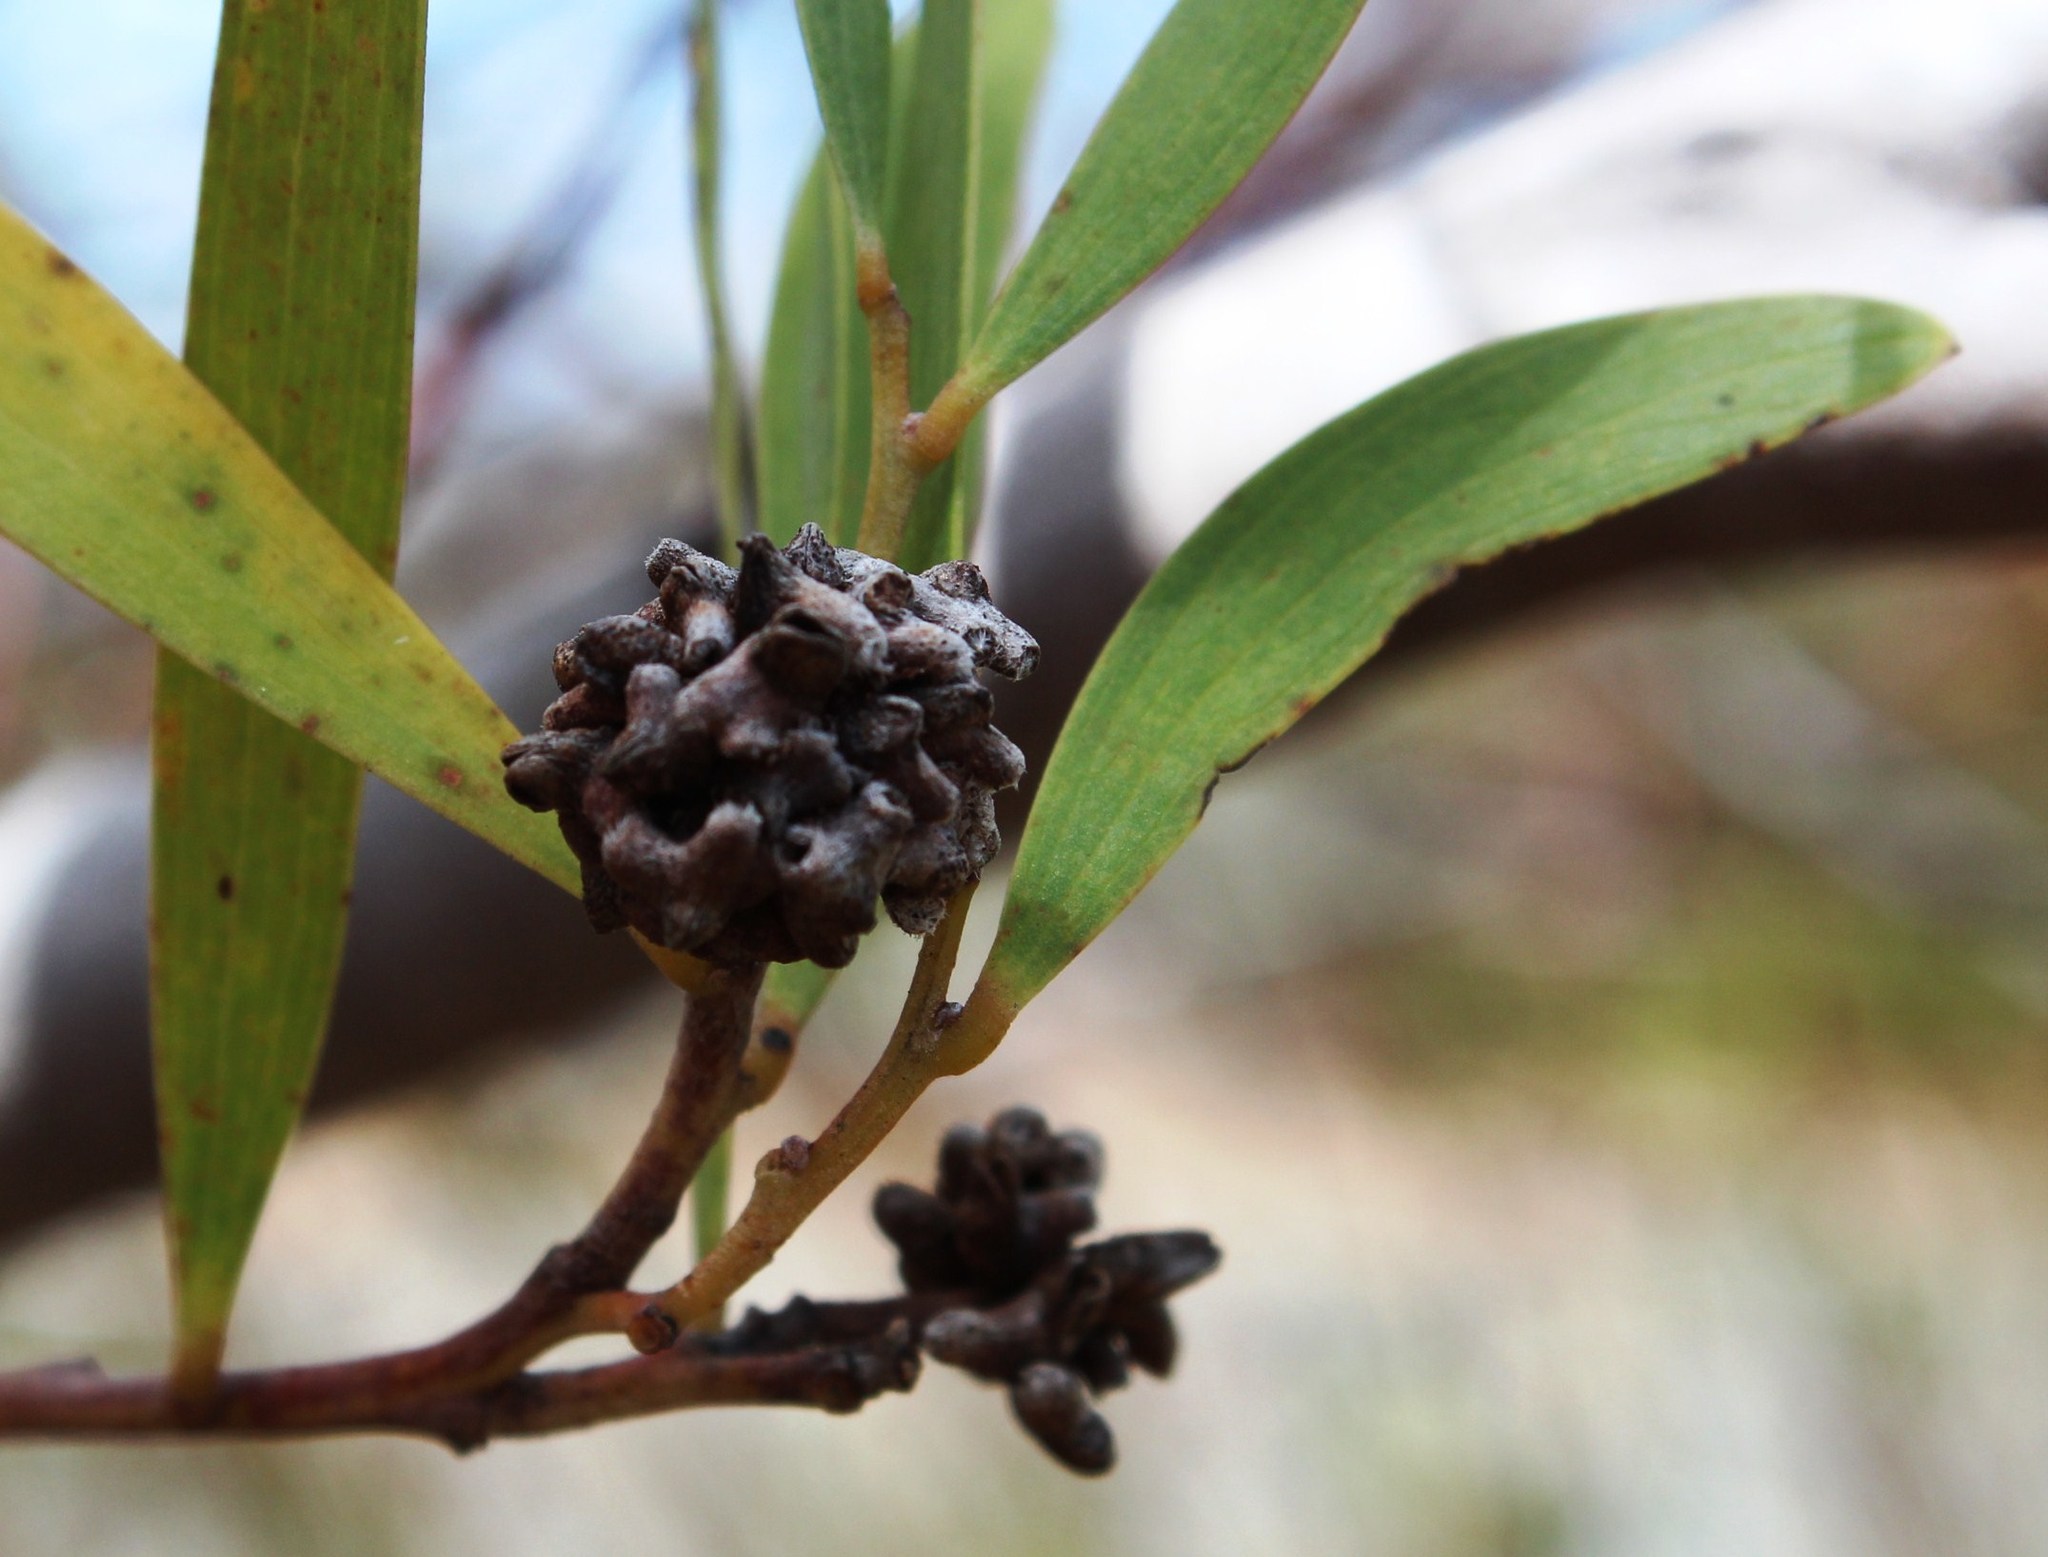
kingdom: Animalia
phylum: Arthropoda
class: Insecta
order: Diptera
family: Cecidomyiidae
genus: Dasineura
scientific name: Dasineura dielsi
